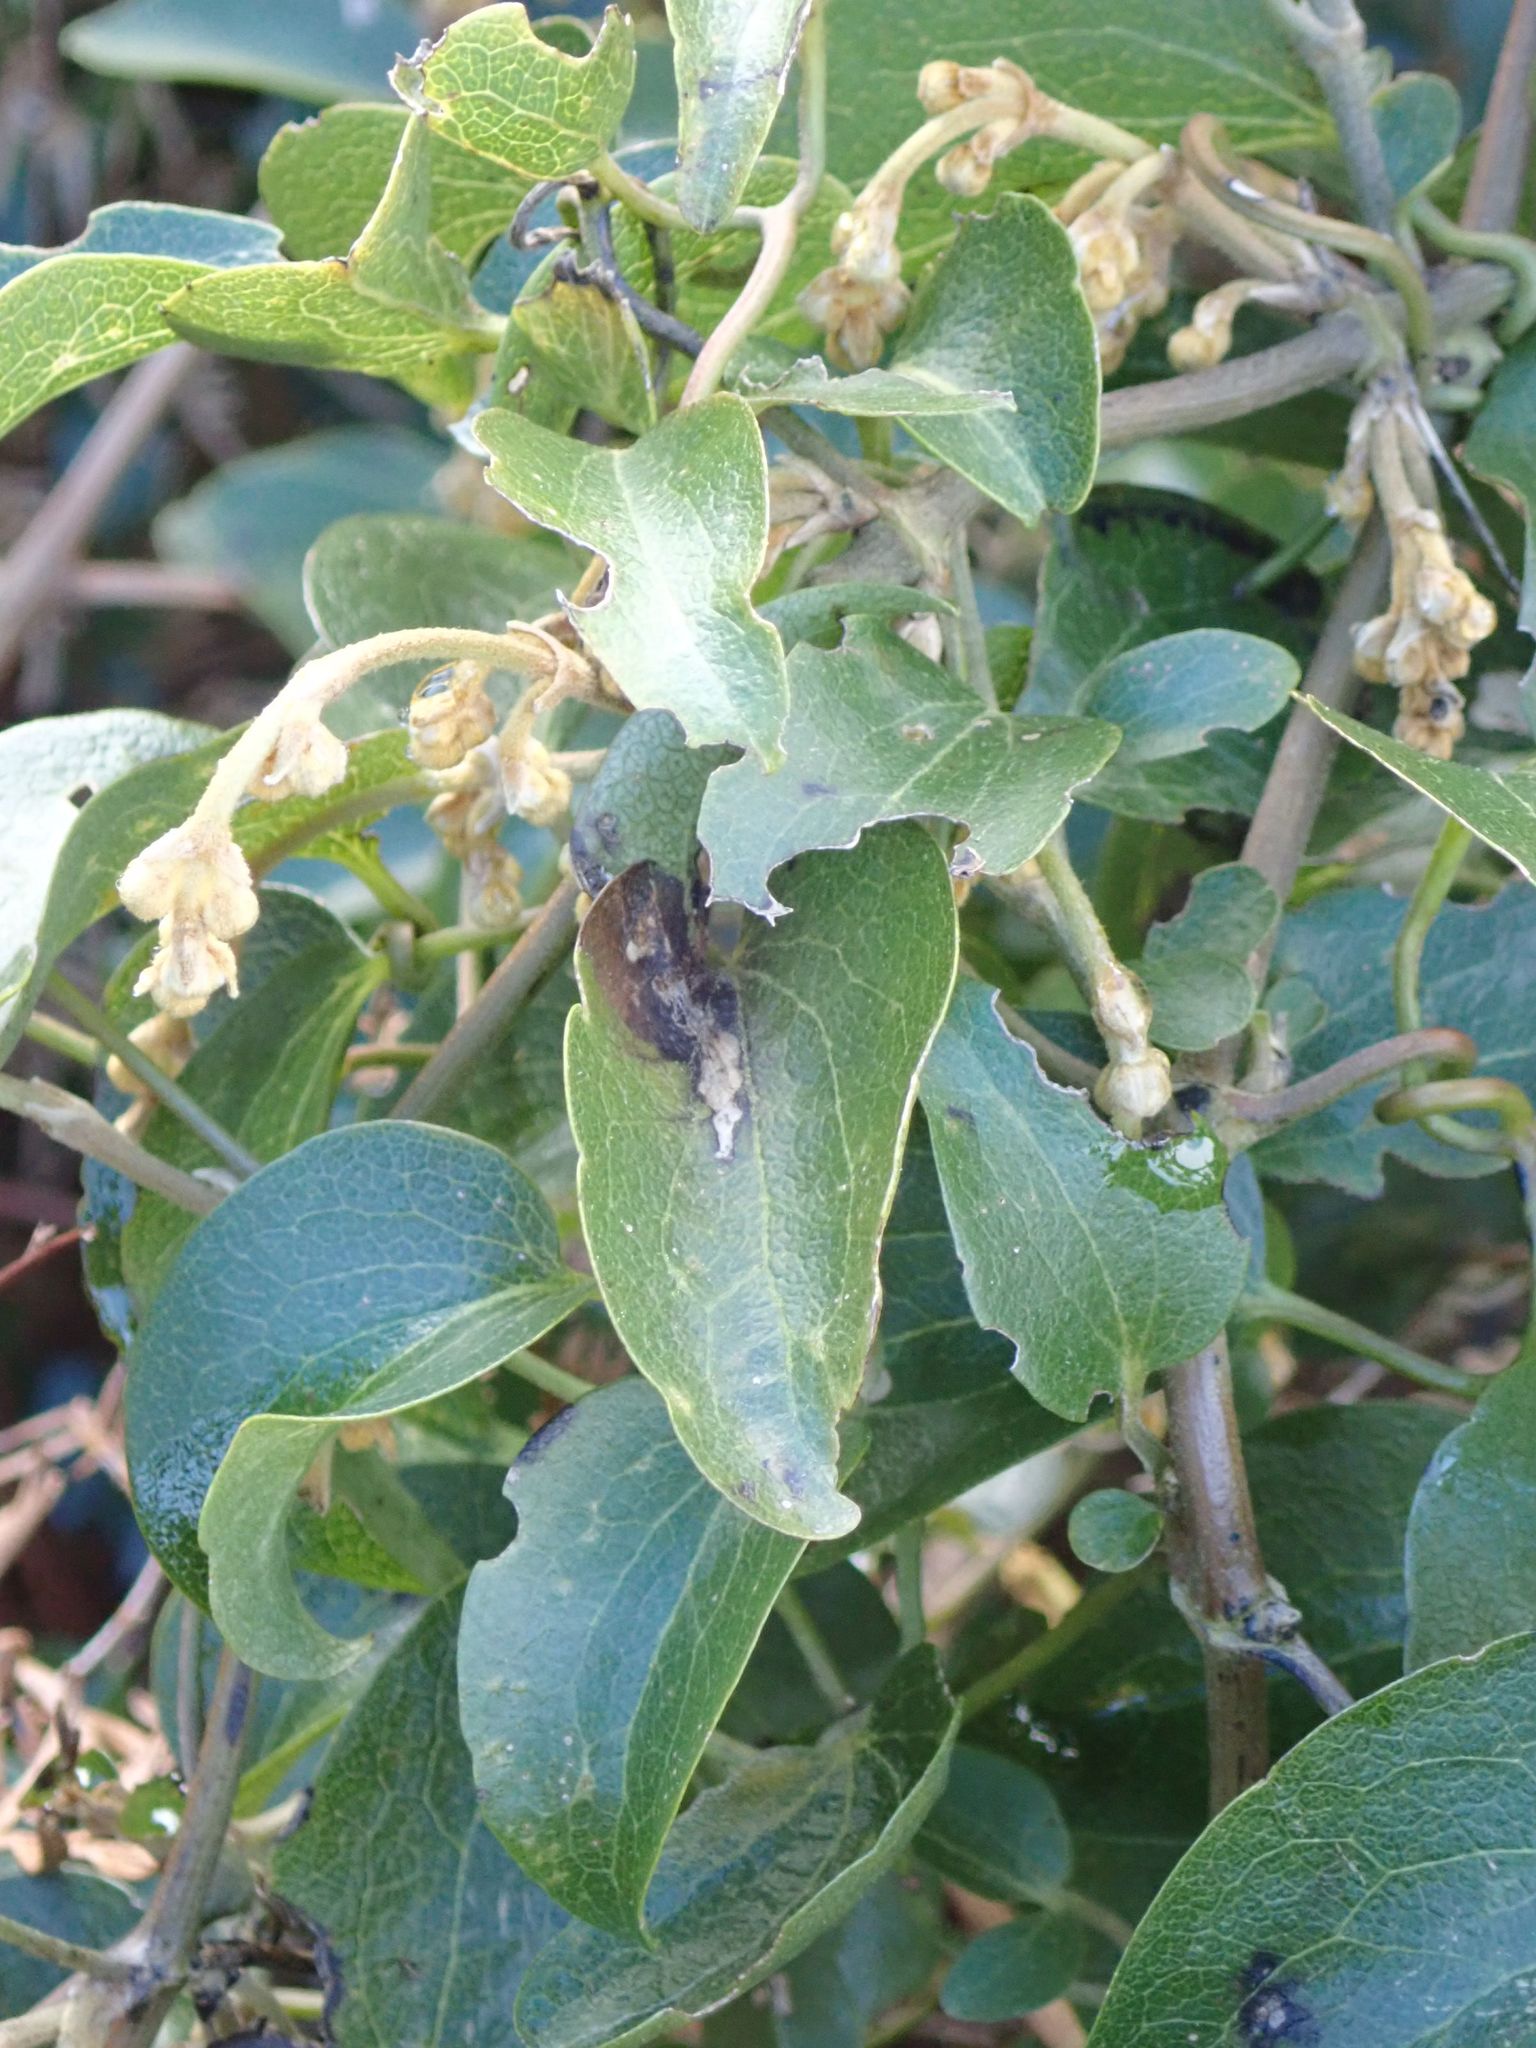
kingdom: Plantae
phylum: Tracheophyta
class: Magnoliopsida
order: Ranunculales
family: Ranunculaceae
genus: Clematis
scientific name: Clematis paniculata
